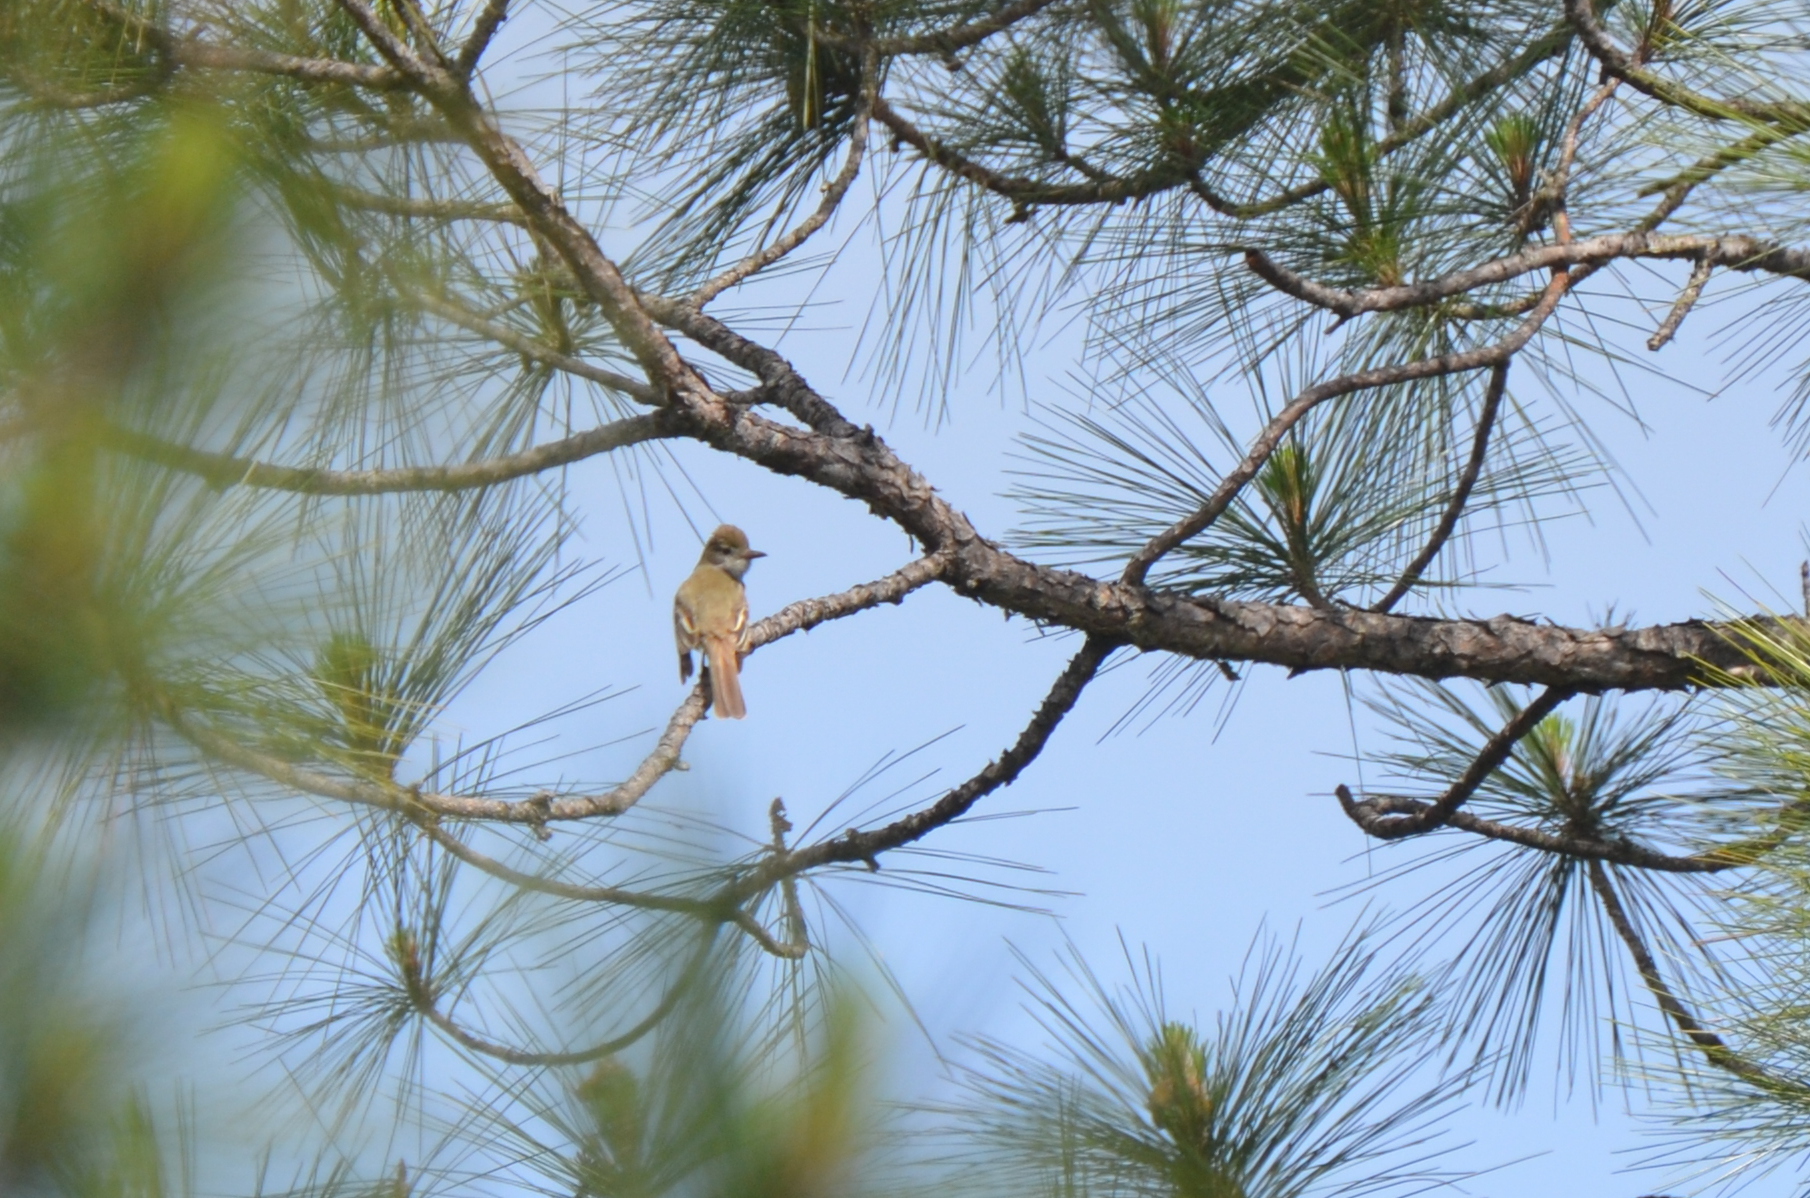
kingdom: Animalia
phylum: Chordata
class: Aves
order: Passeriformes
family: Tyrannidae
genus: Myiarchus
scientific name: Myiarchus crinitus
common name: Great crested flycatcher
